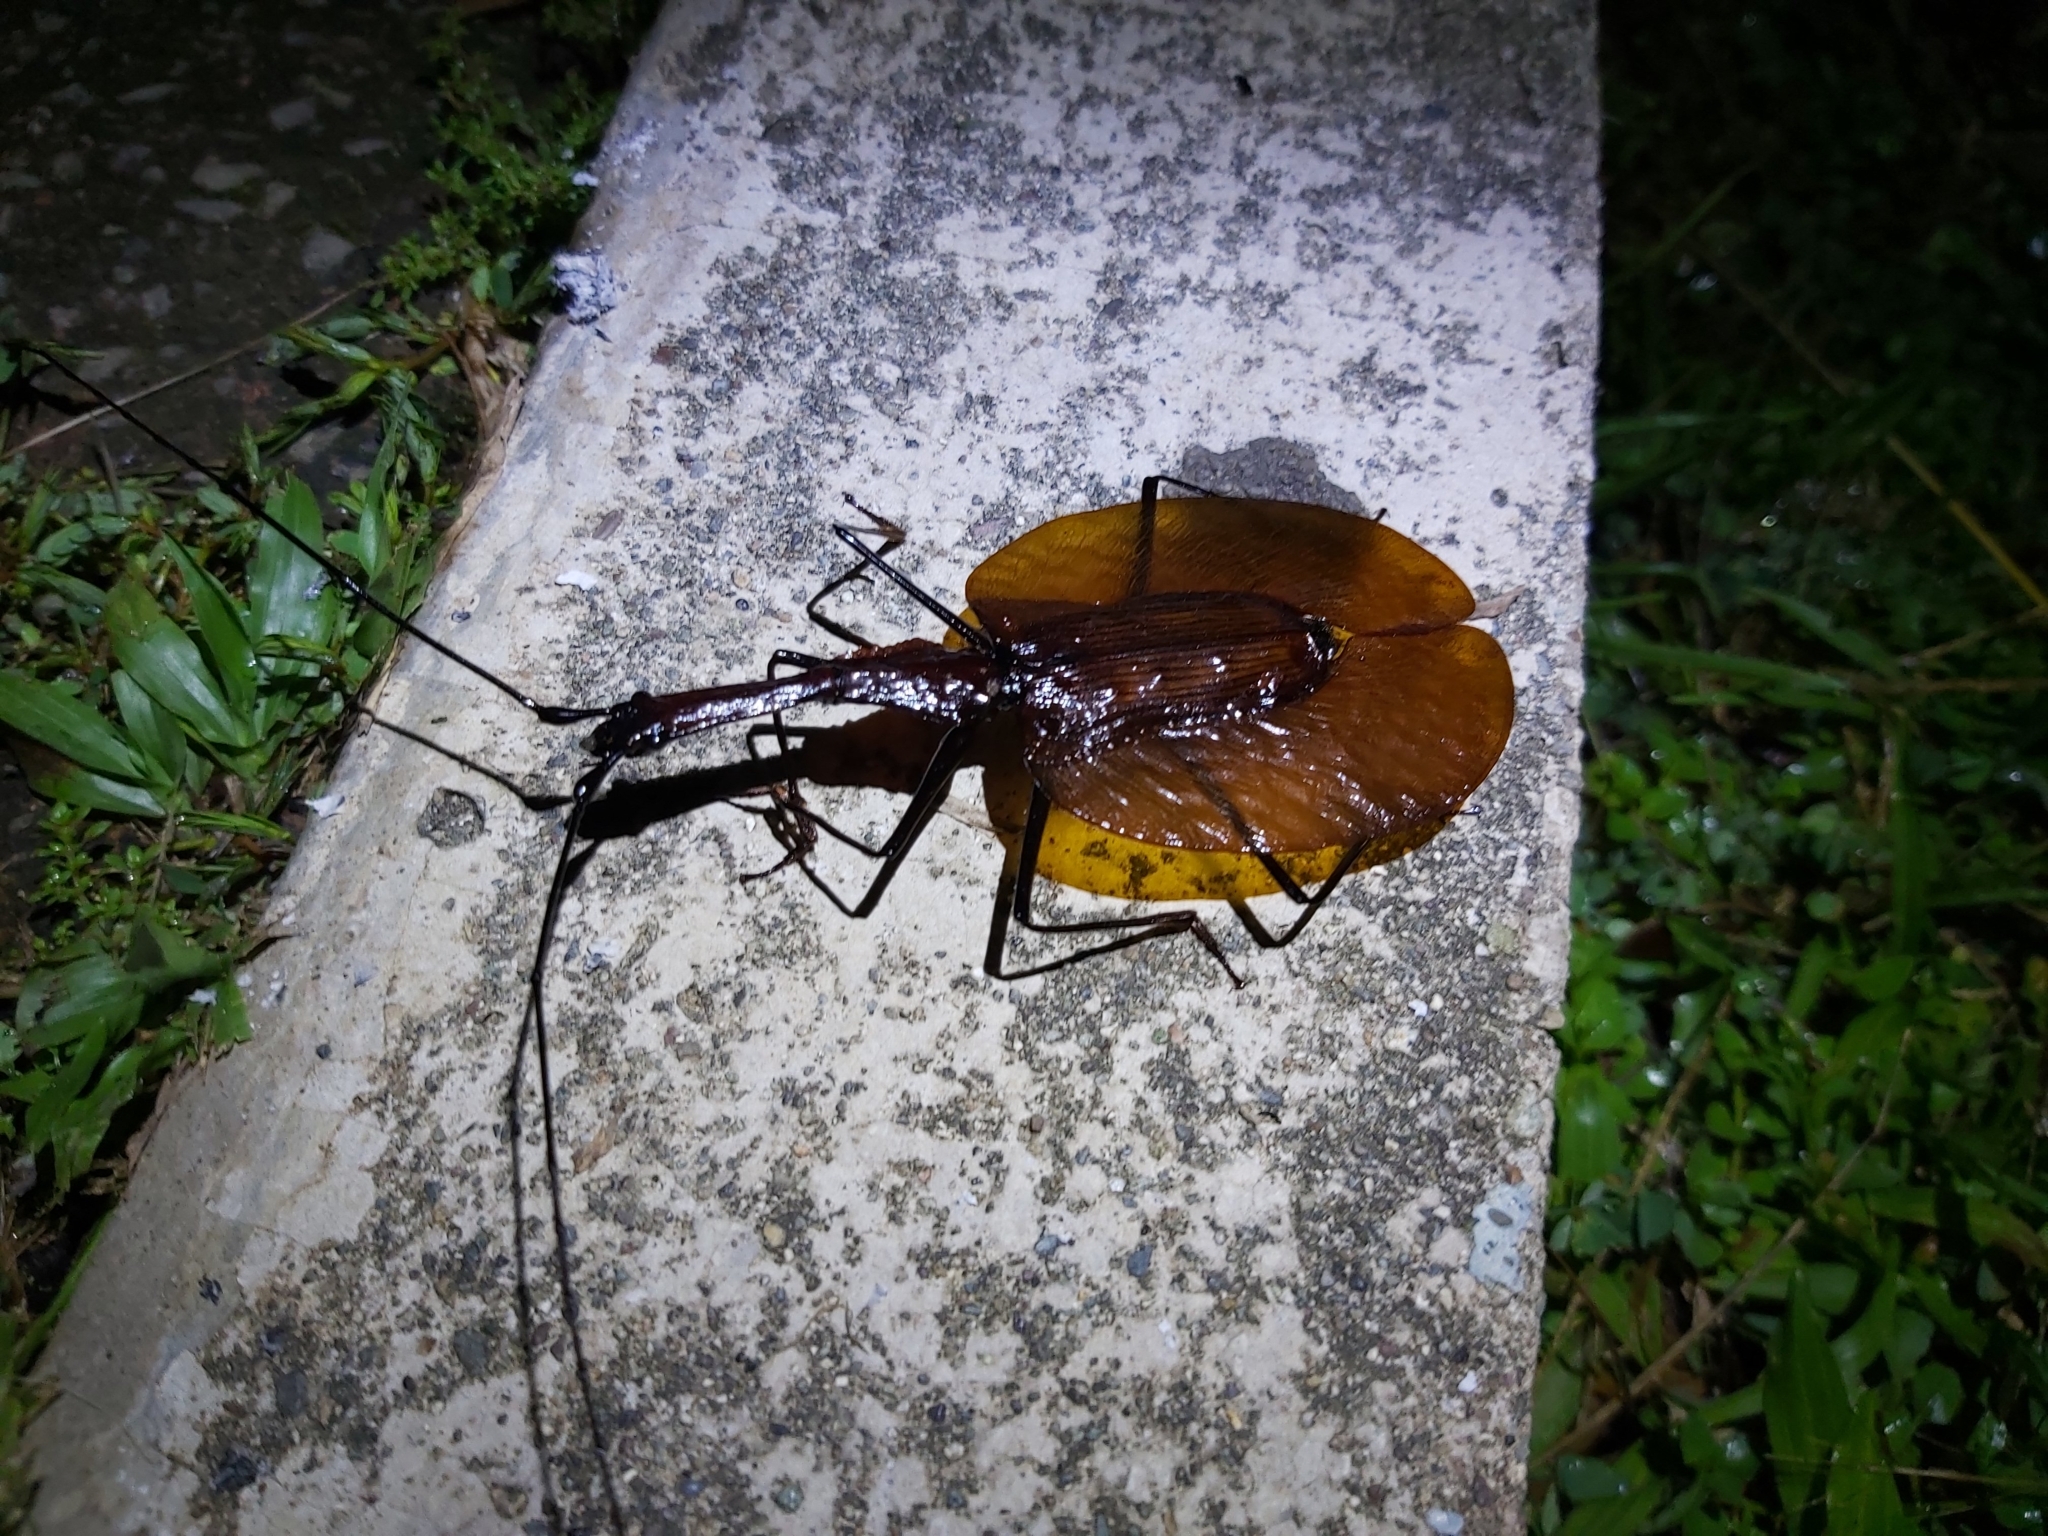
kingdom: Animalia
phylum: Arthropoda
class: Insecta
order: Coleoptera
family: Carabidae
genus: Mormolyce
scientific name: Mormolyce borneensis
